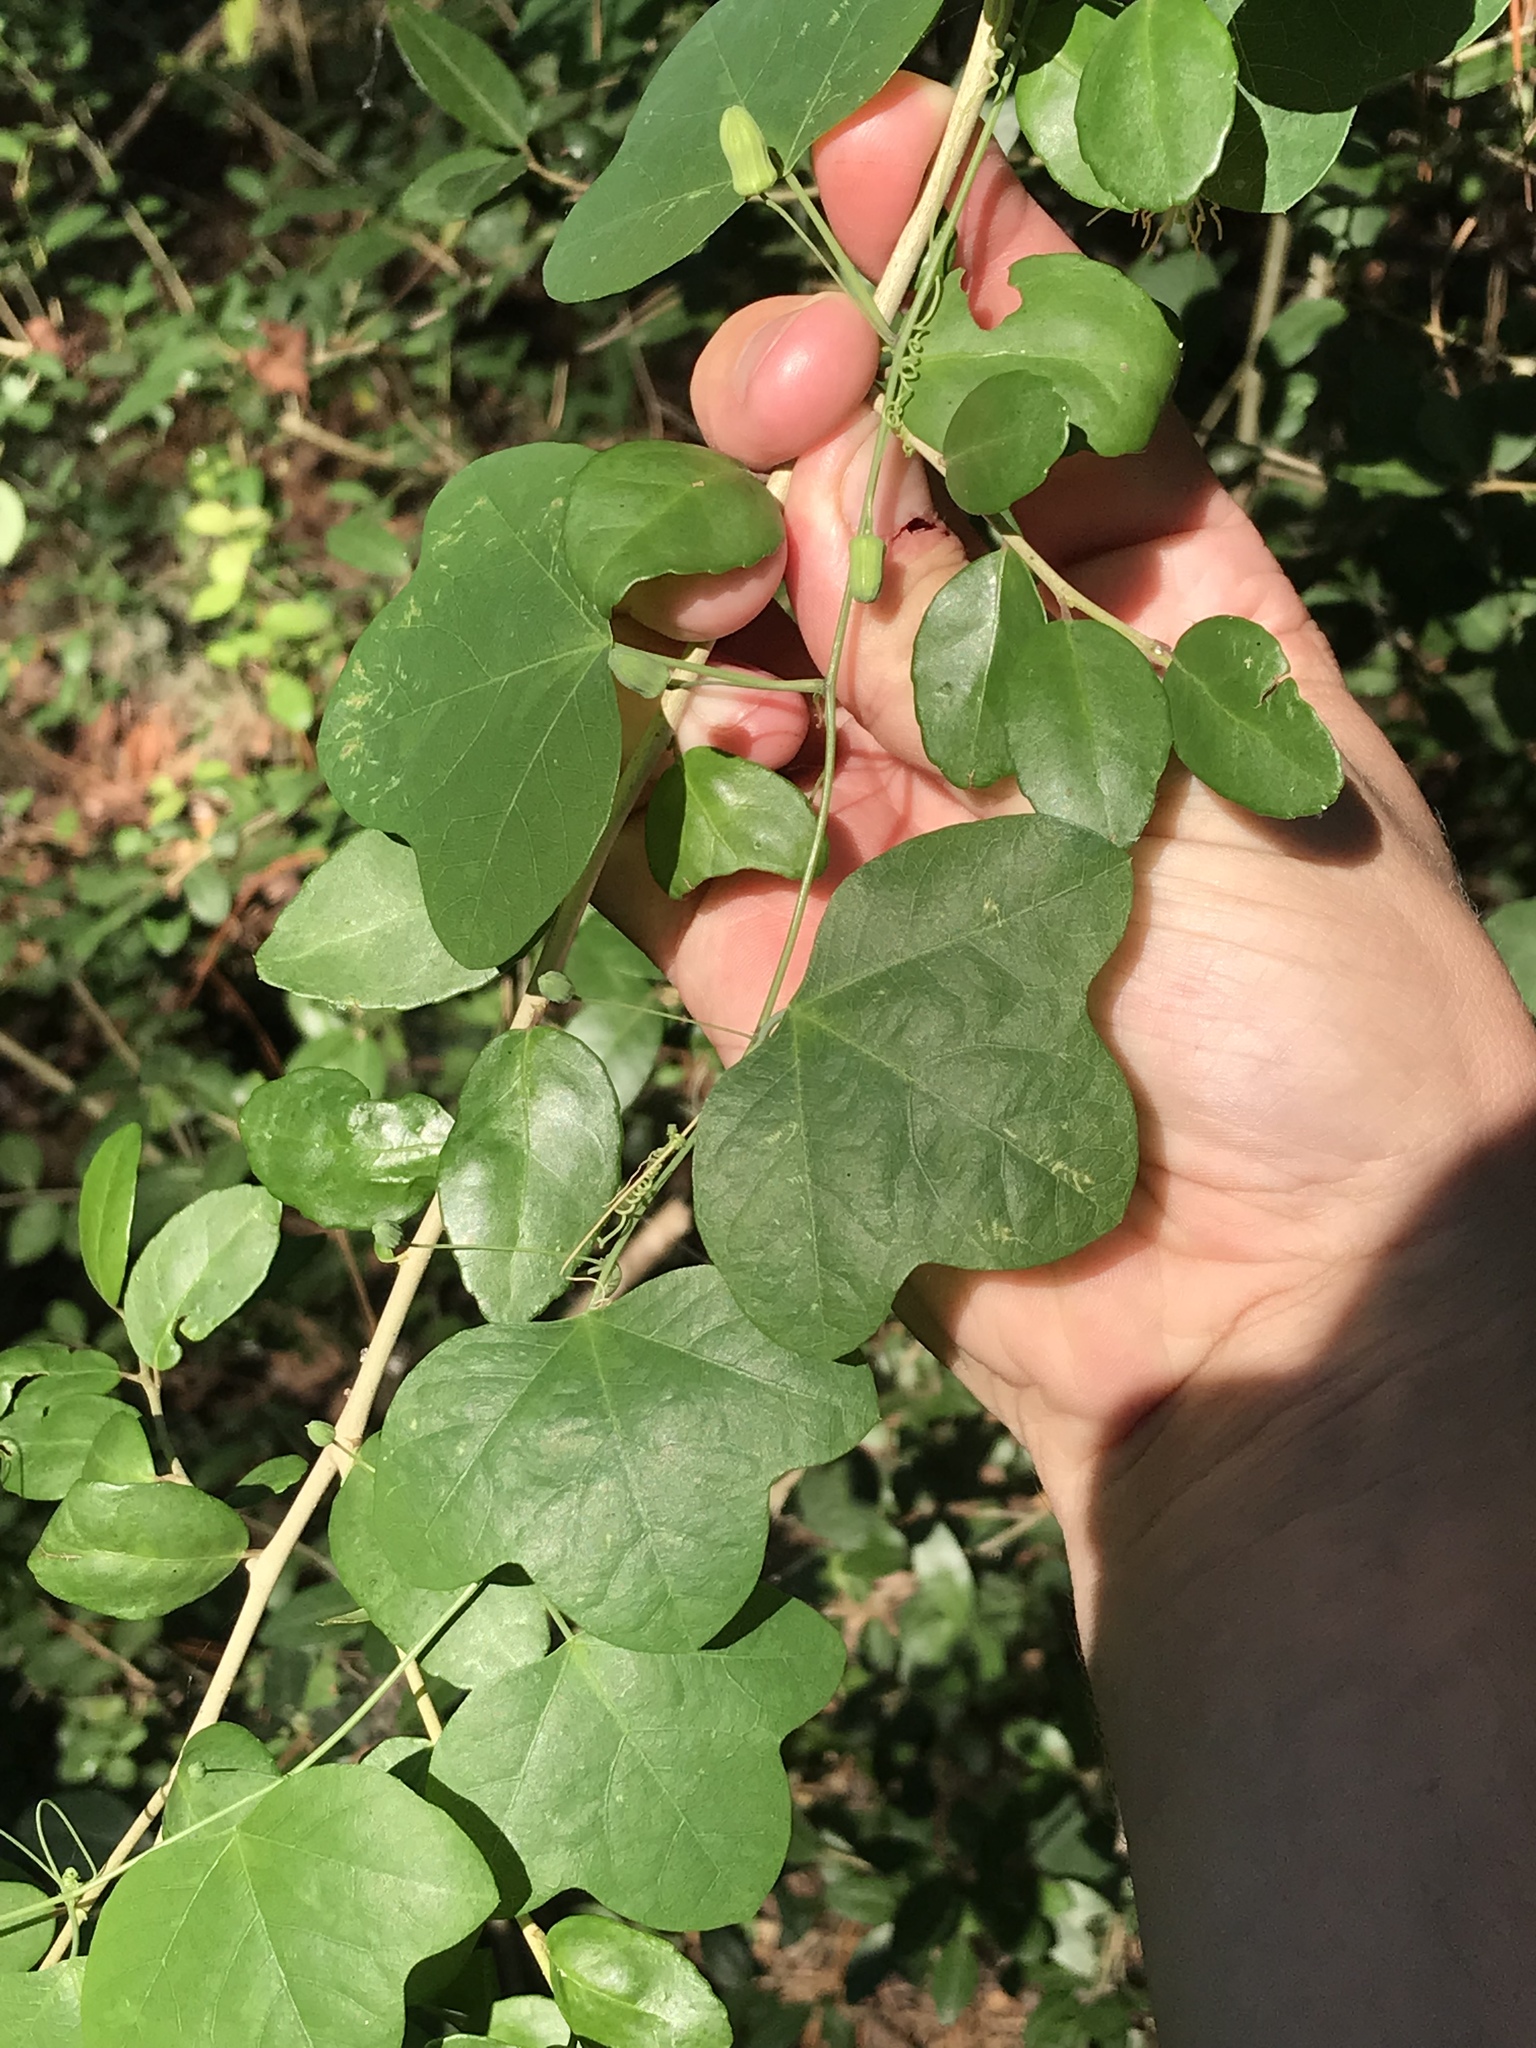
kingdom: Plantae
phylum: Tracheophyta
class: Magnoliopsida
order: Malpighiales
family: Passifloraceae
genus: Passiflora
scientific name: Passiflora lutea
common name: Yellow passionflower
